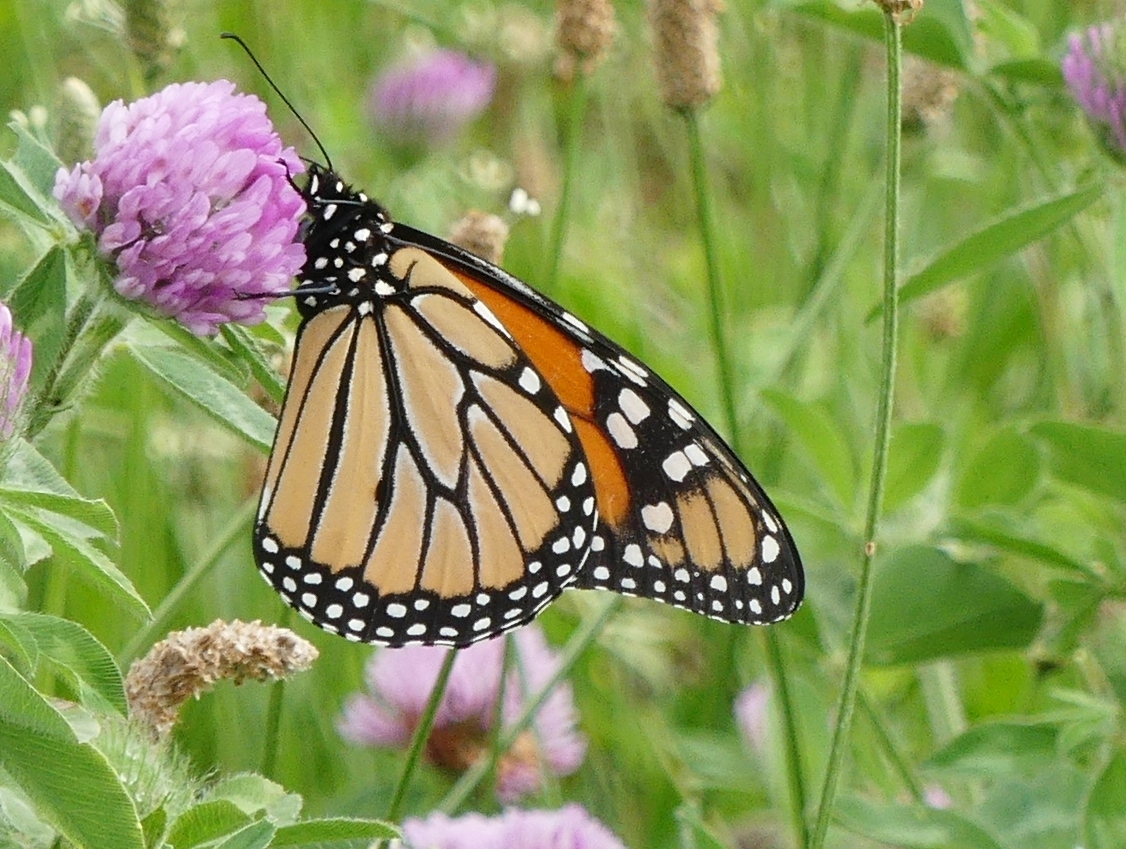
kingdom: Animalia
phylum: Arthropoda
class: Insecta
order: Lepidoptera
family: Nymphalidae
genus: Danaus
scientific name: Danaus plexippus
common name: Monarch
